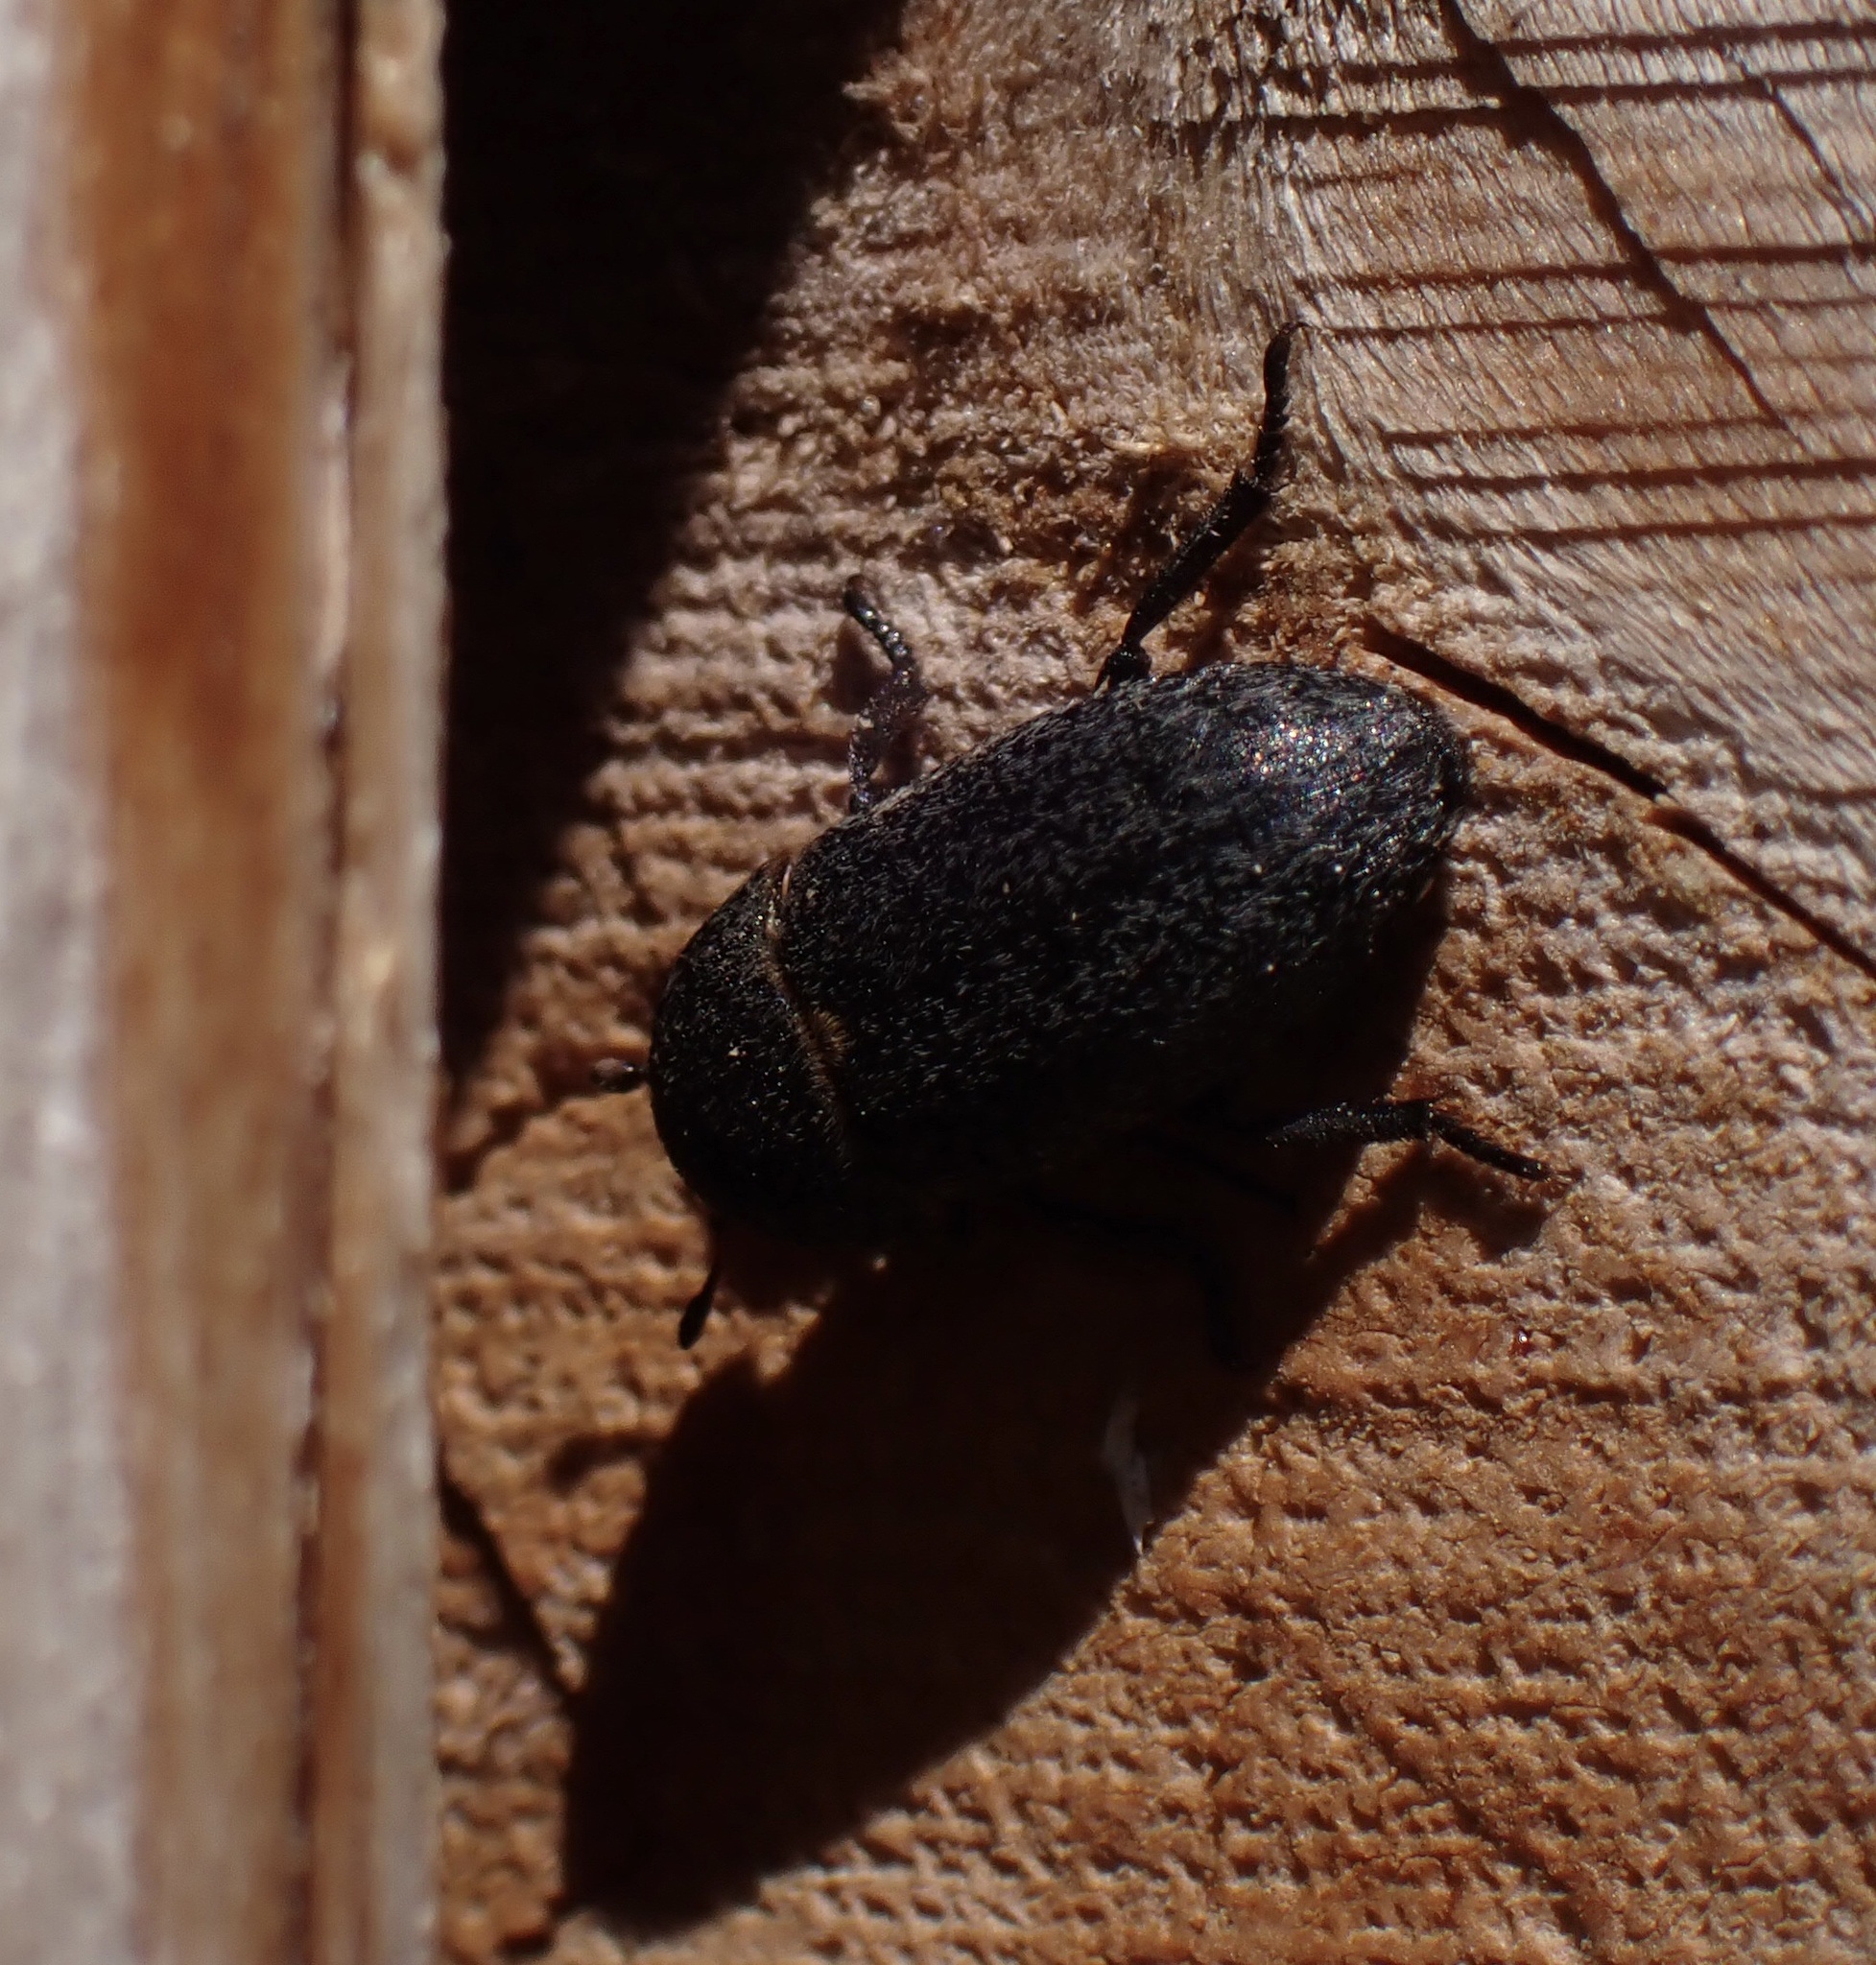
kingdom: Animalia
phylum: Arthropoda
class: Insecta
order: Coleoptera
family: Dermestidae
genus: Dermestes
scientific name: Dermestes laniarius
